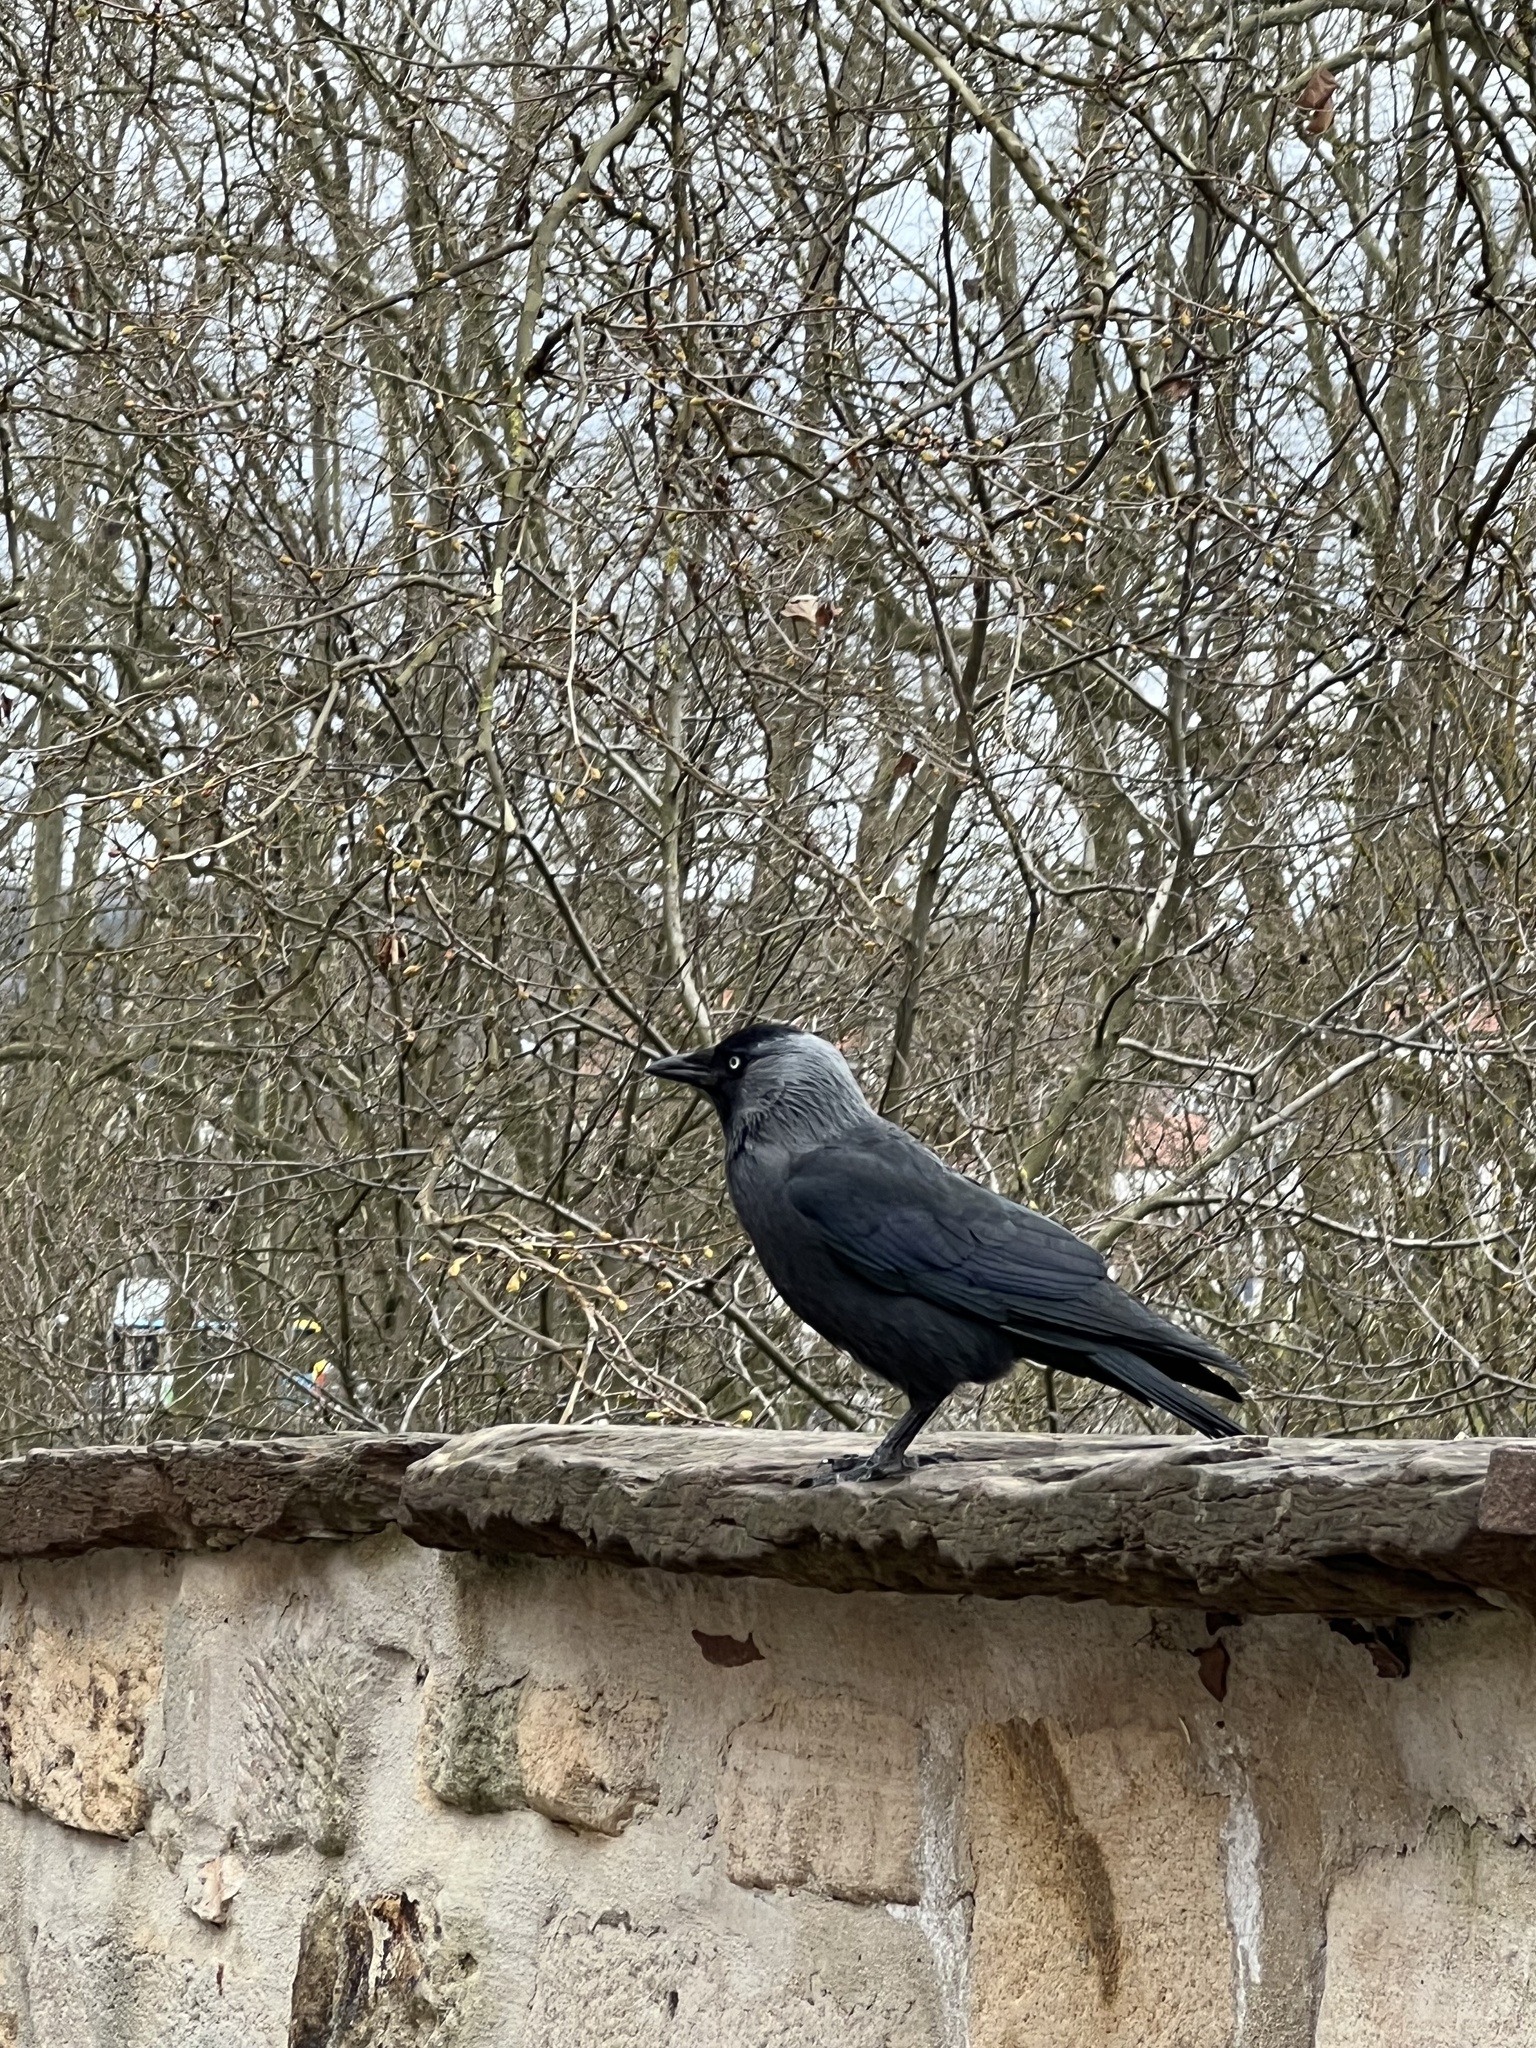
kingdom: Animalia
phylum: Chordata
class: Aves
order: Passeriformes
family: Corvidae
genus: Coloeus
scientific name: Coloeus monedula
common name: Western jackdaw
